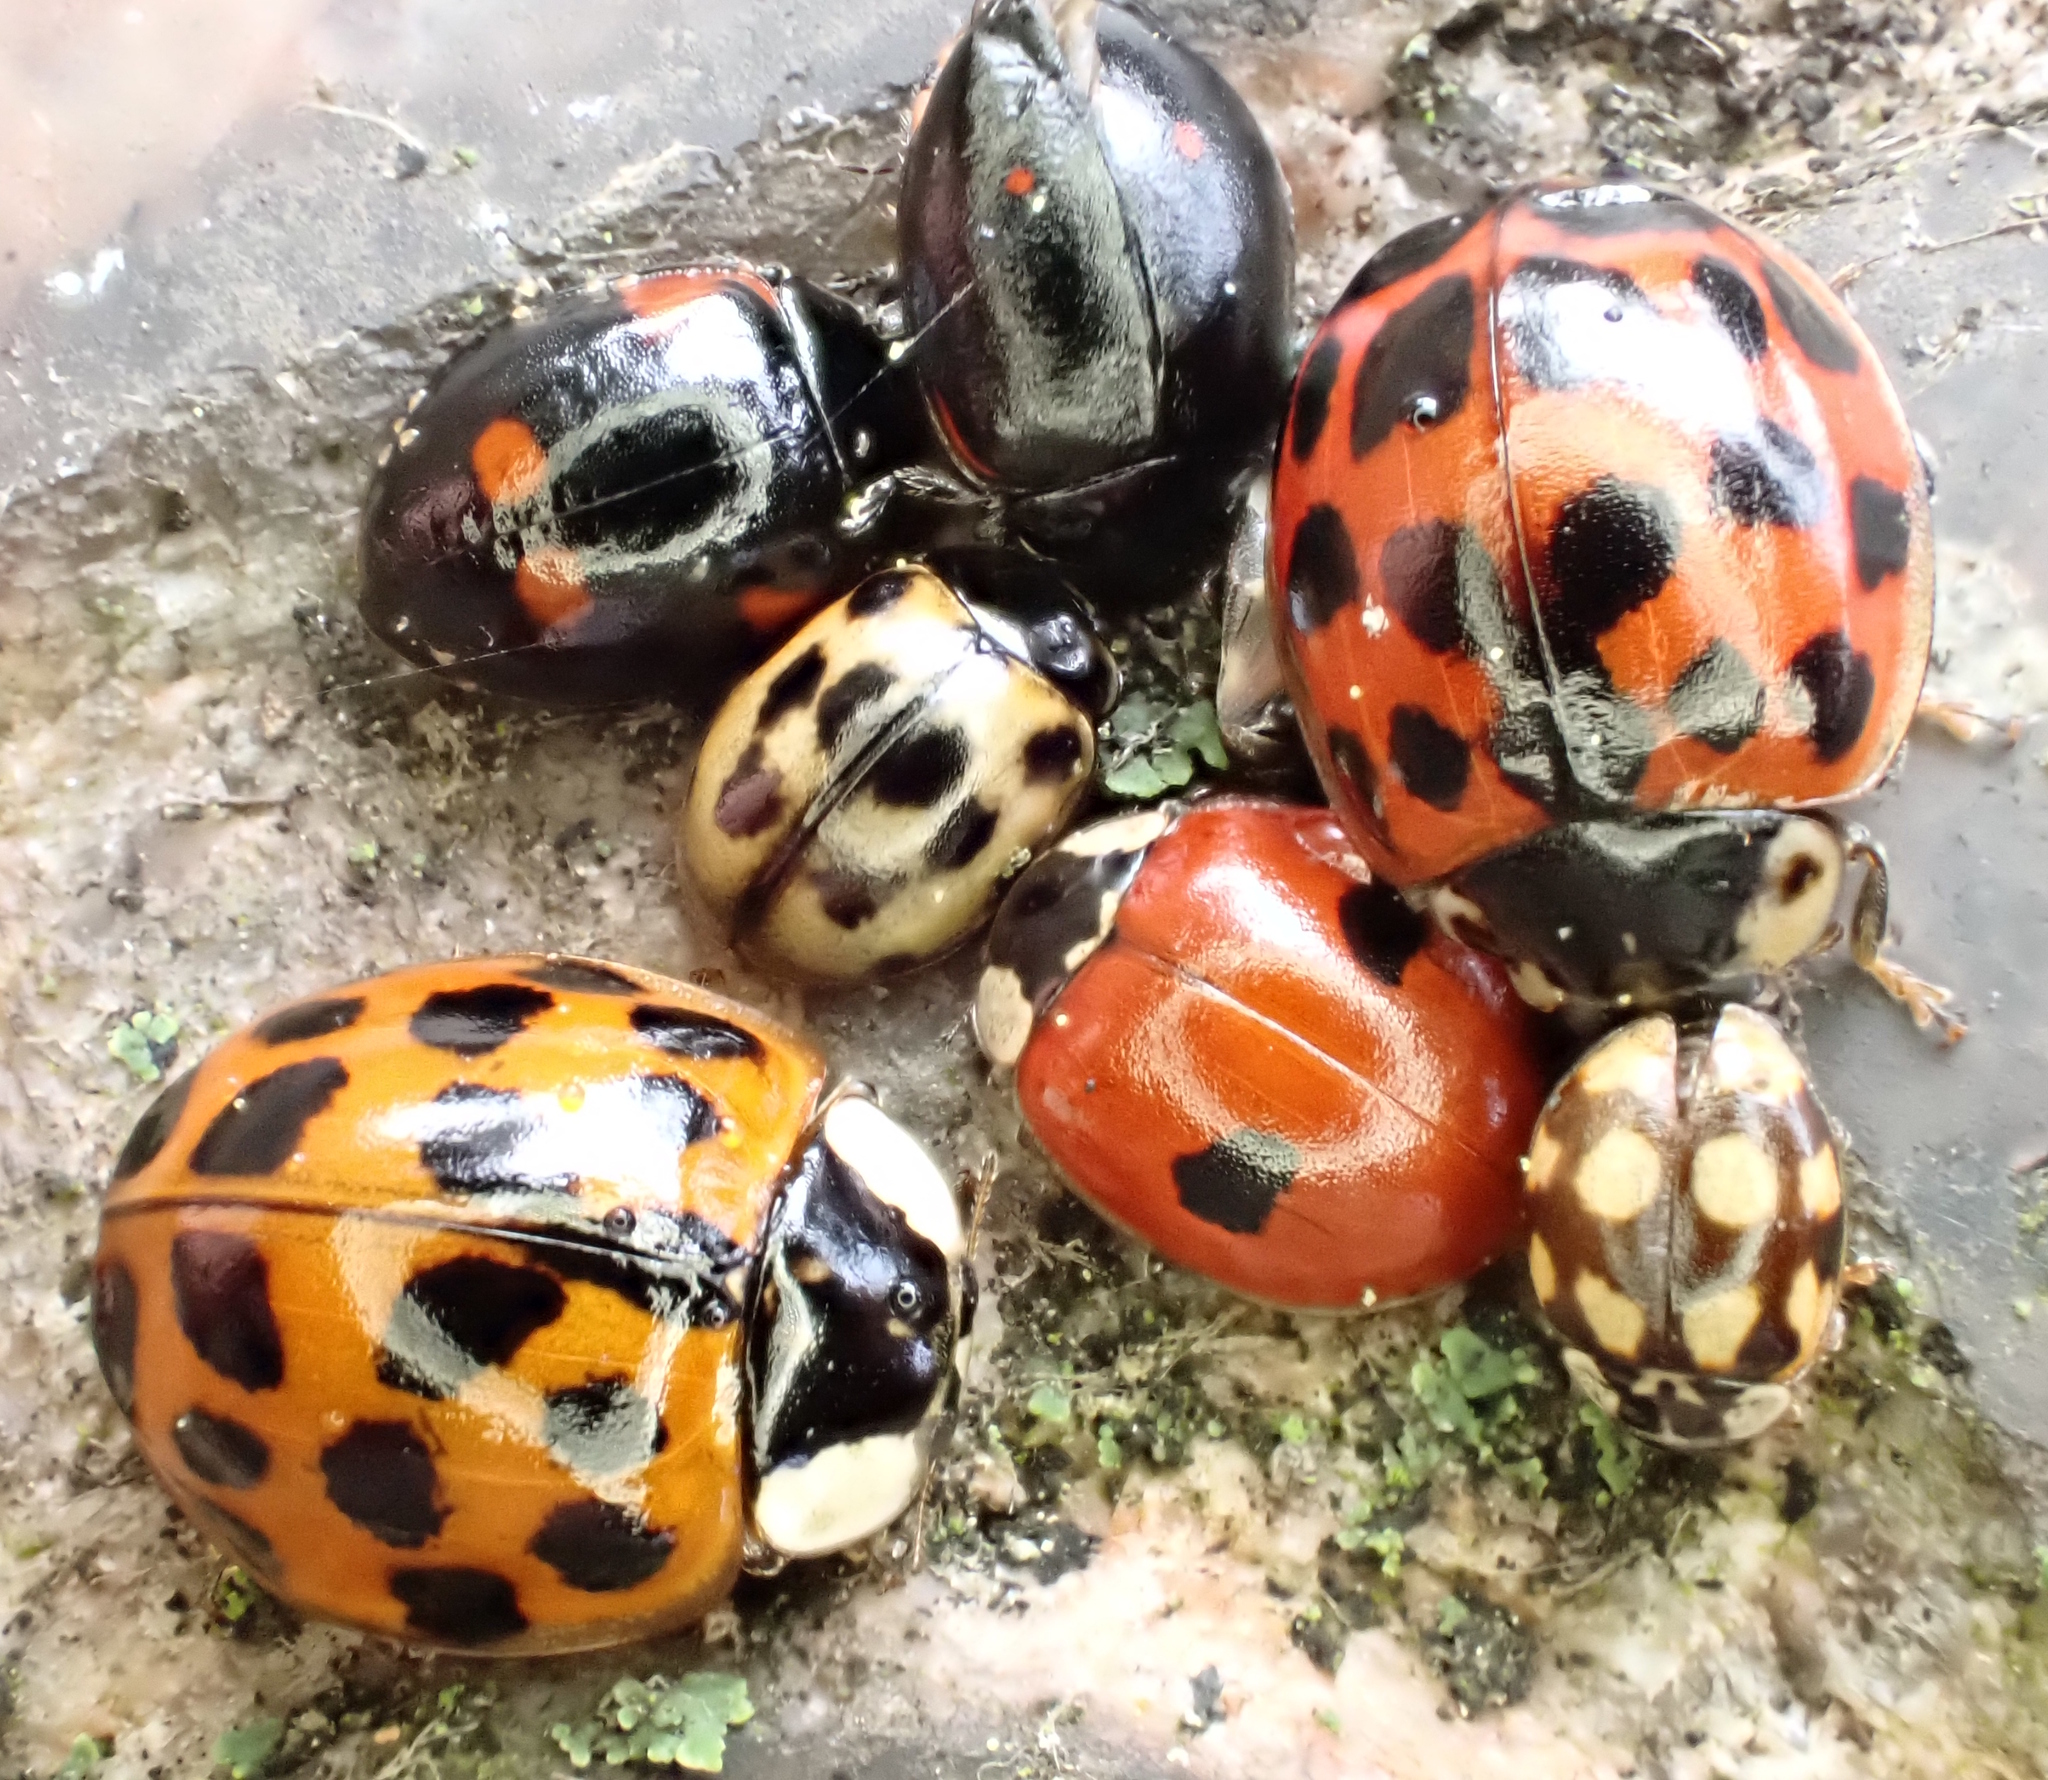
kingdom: Animalia
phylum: Arthropoda
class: Insecta
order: Coleoptera
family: Coccinellidae
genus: Harmonia
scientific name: Harmonia axyridis
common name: Harlequin ladybird
